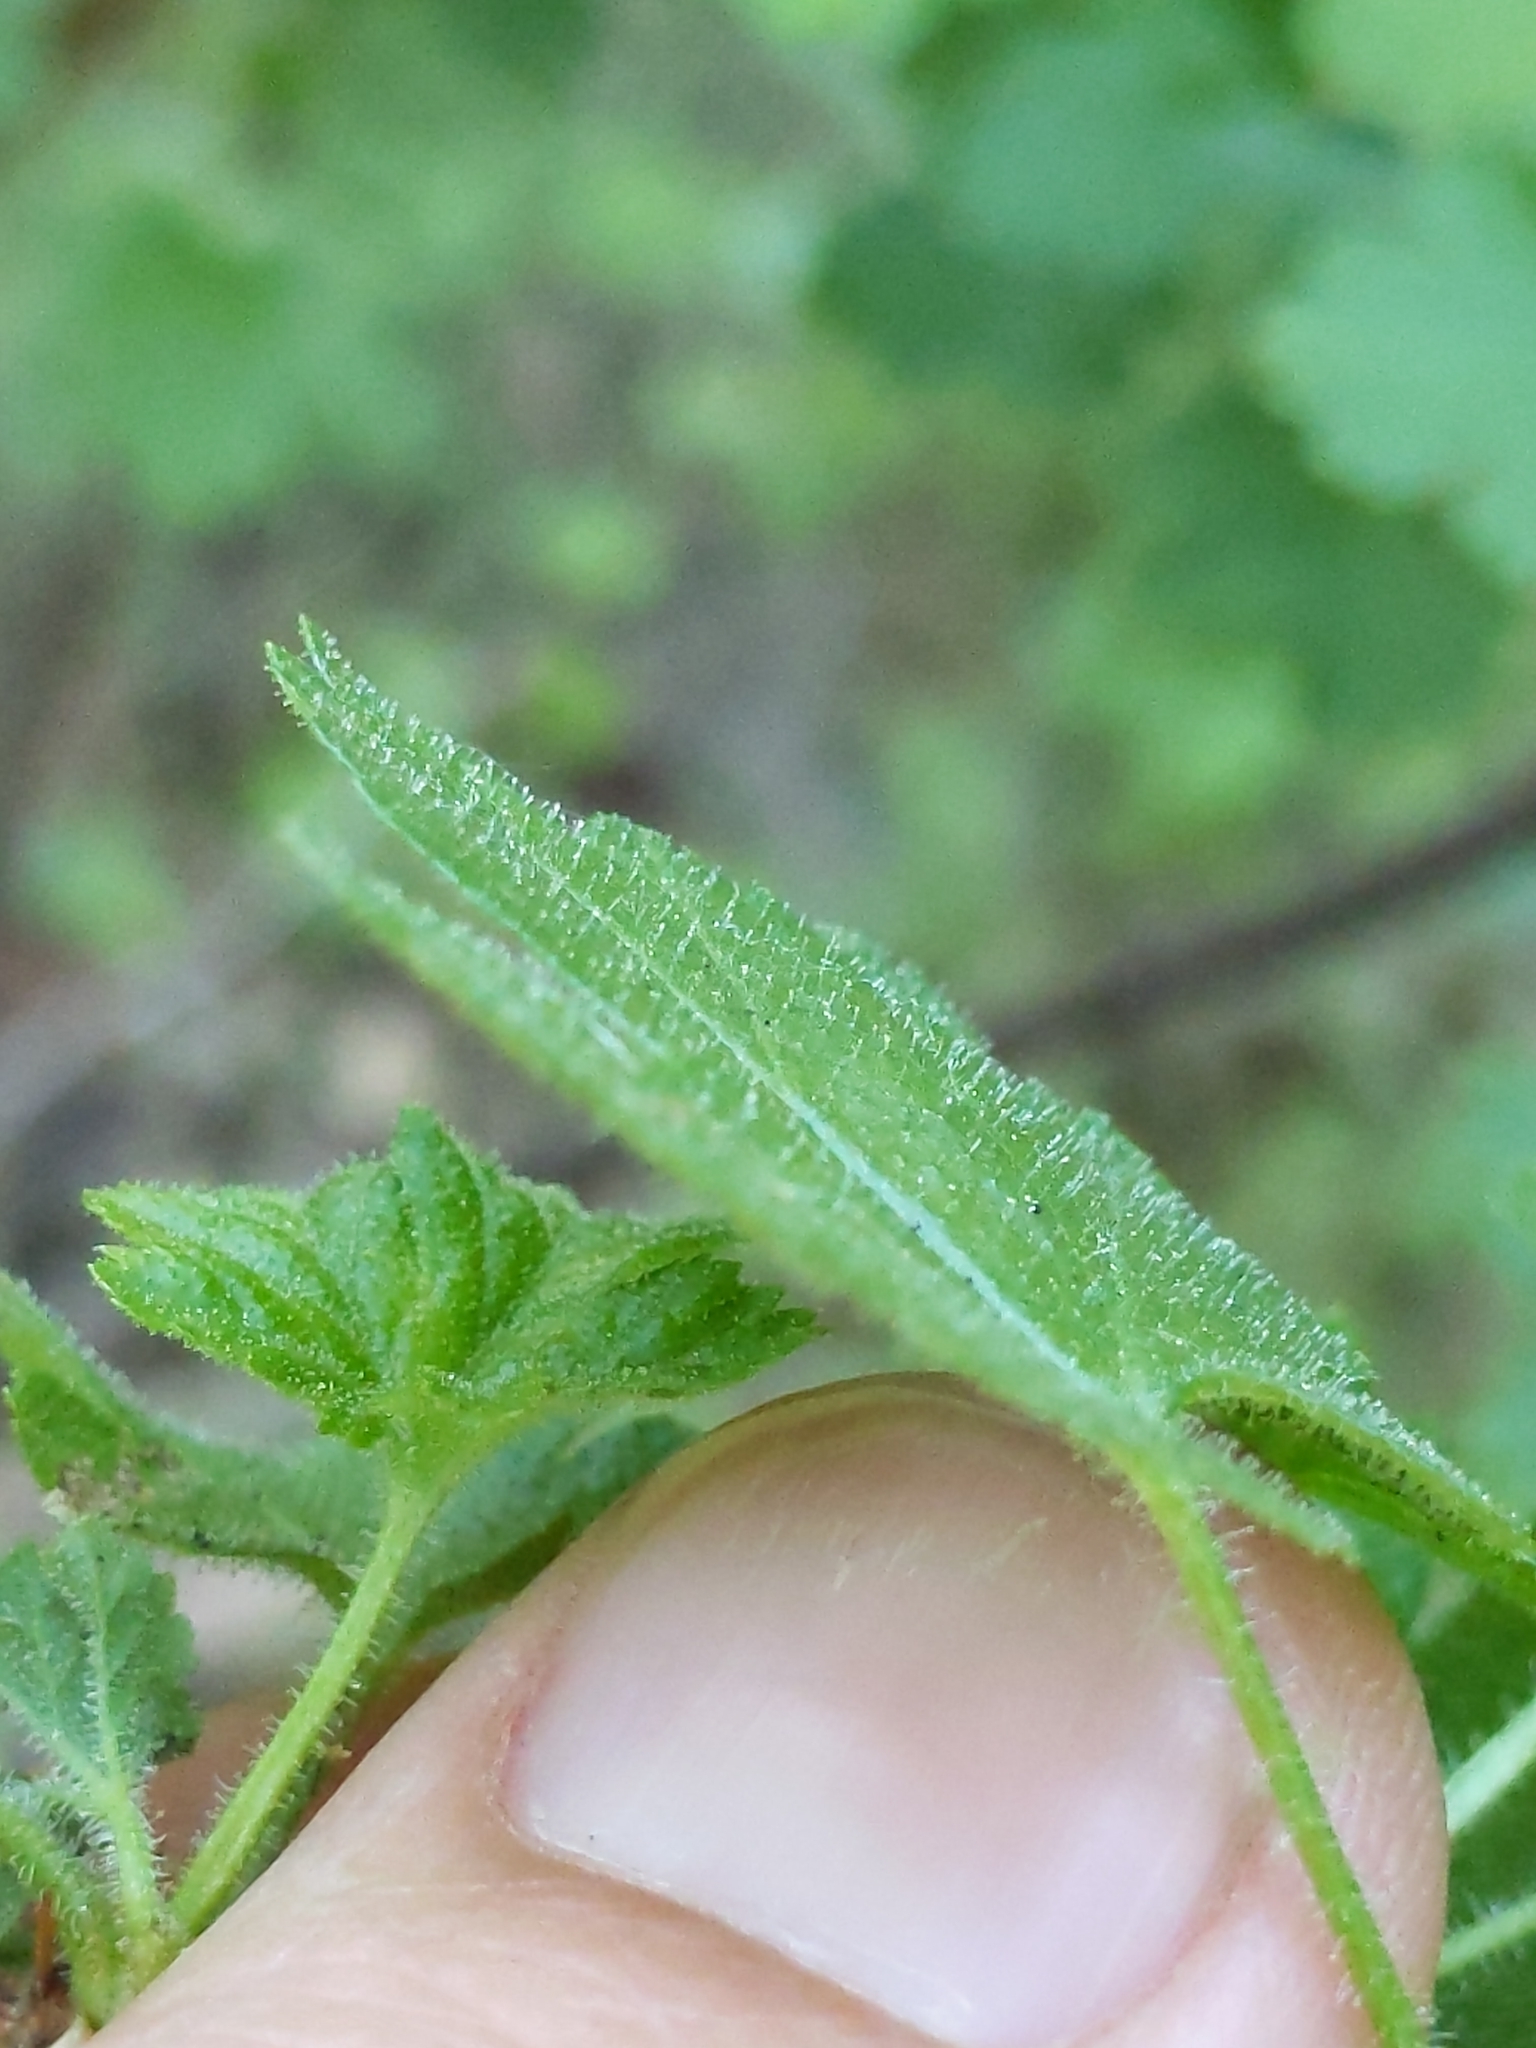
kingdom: Plantae
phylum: Tracheophyta
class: Magnoliopsida
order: Saxifragales
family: Grossulariaceae
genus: Ribes
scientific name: Ribes menziesii
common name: Canyon gooseberry
